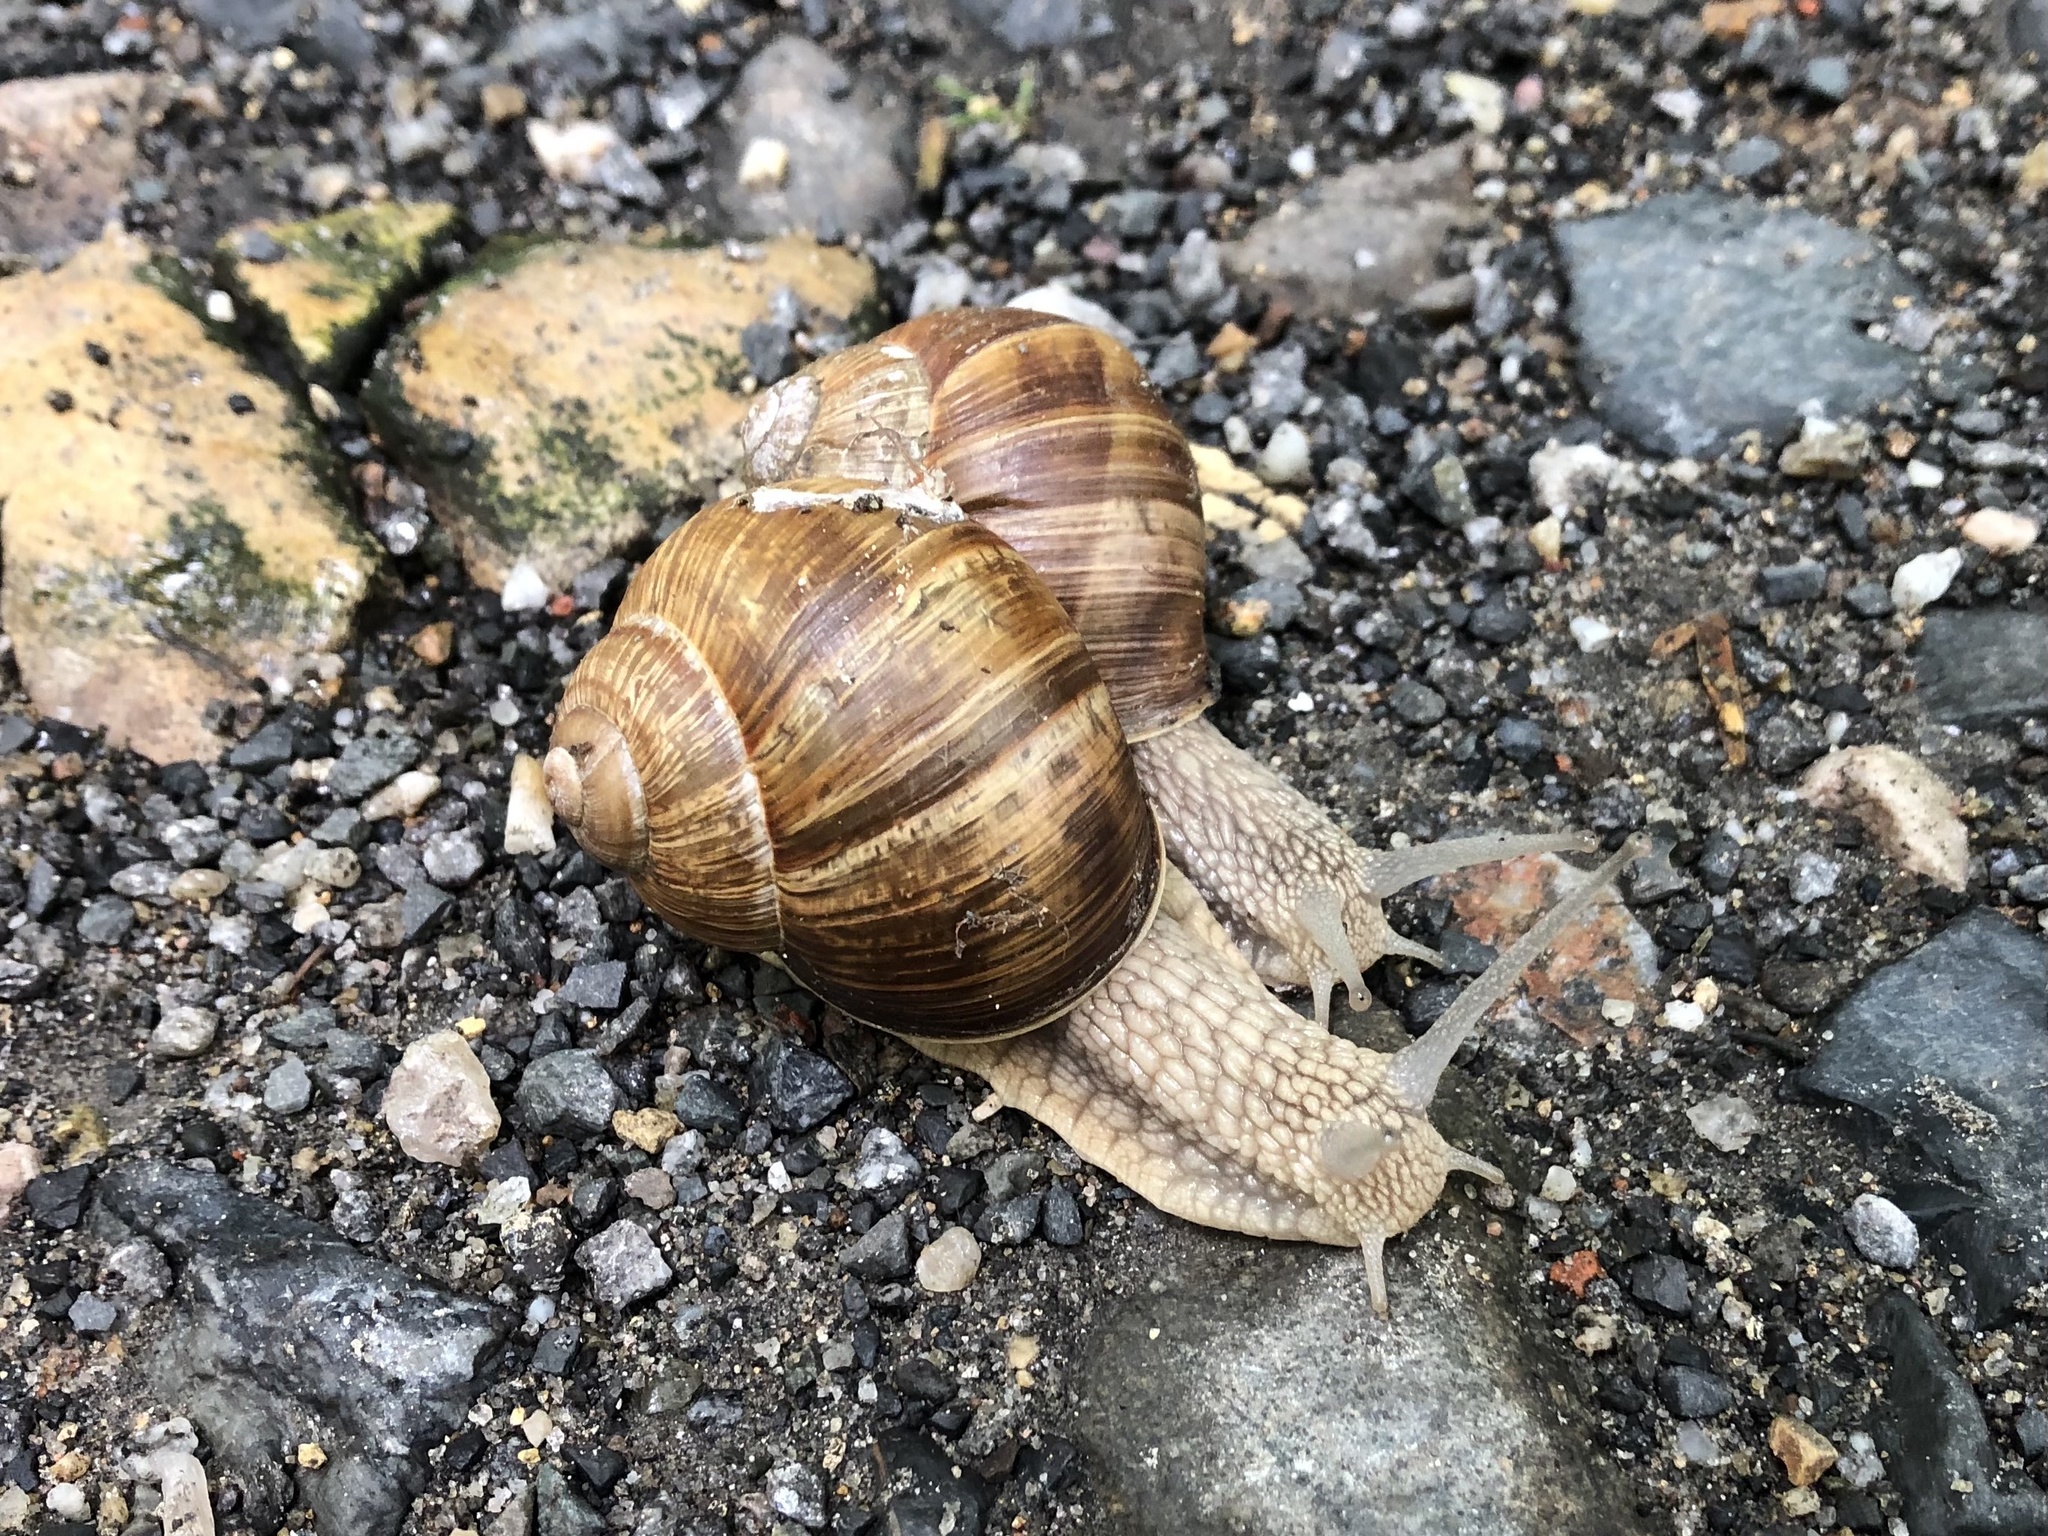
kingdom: Animalia
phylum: Mollusca
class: Gastropoda
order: Stylommatophora
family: Helicidae
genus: Helix
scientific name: Helix pomatia
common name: Roman snail
